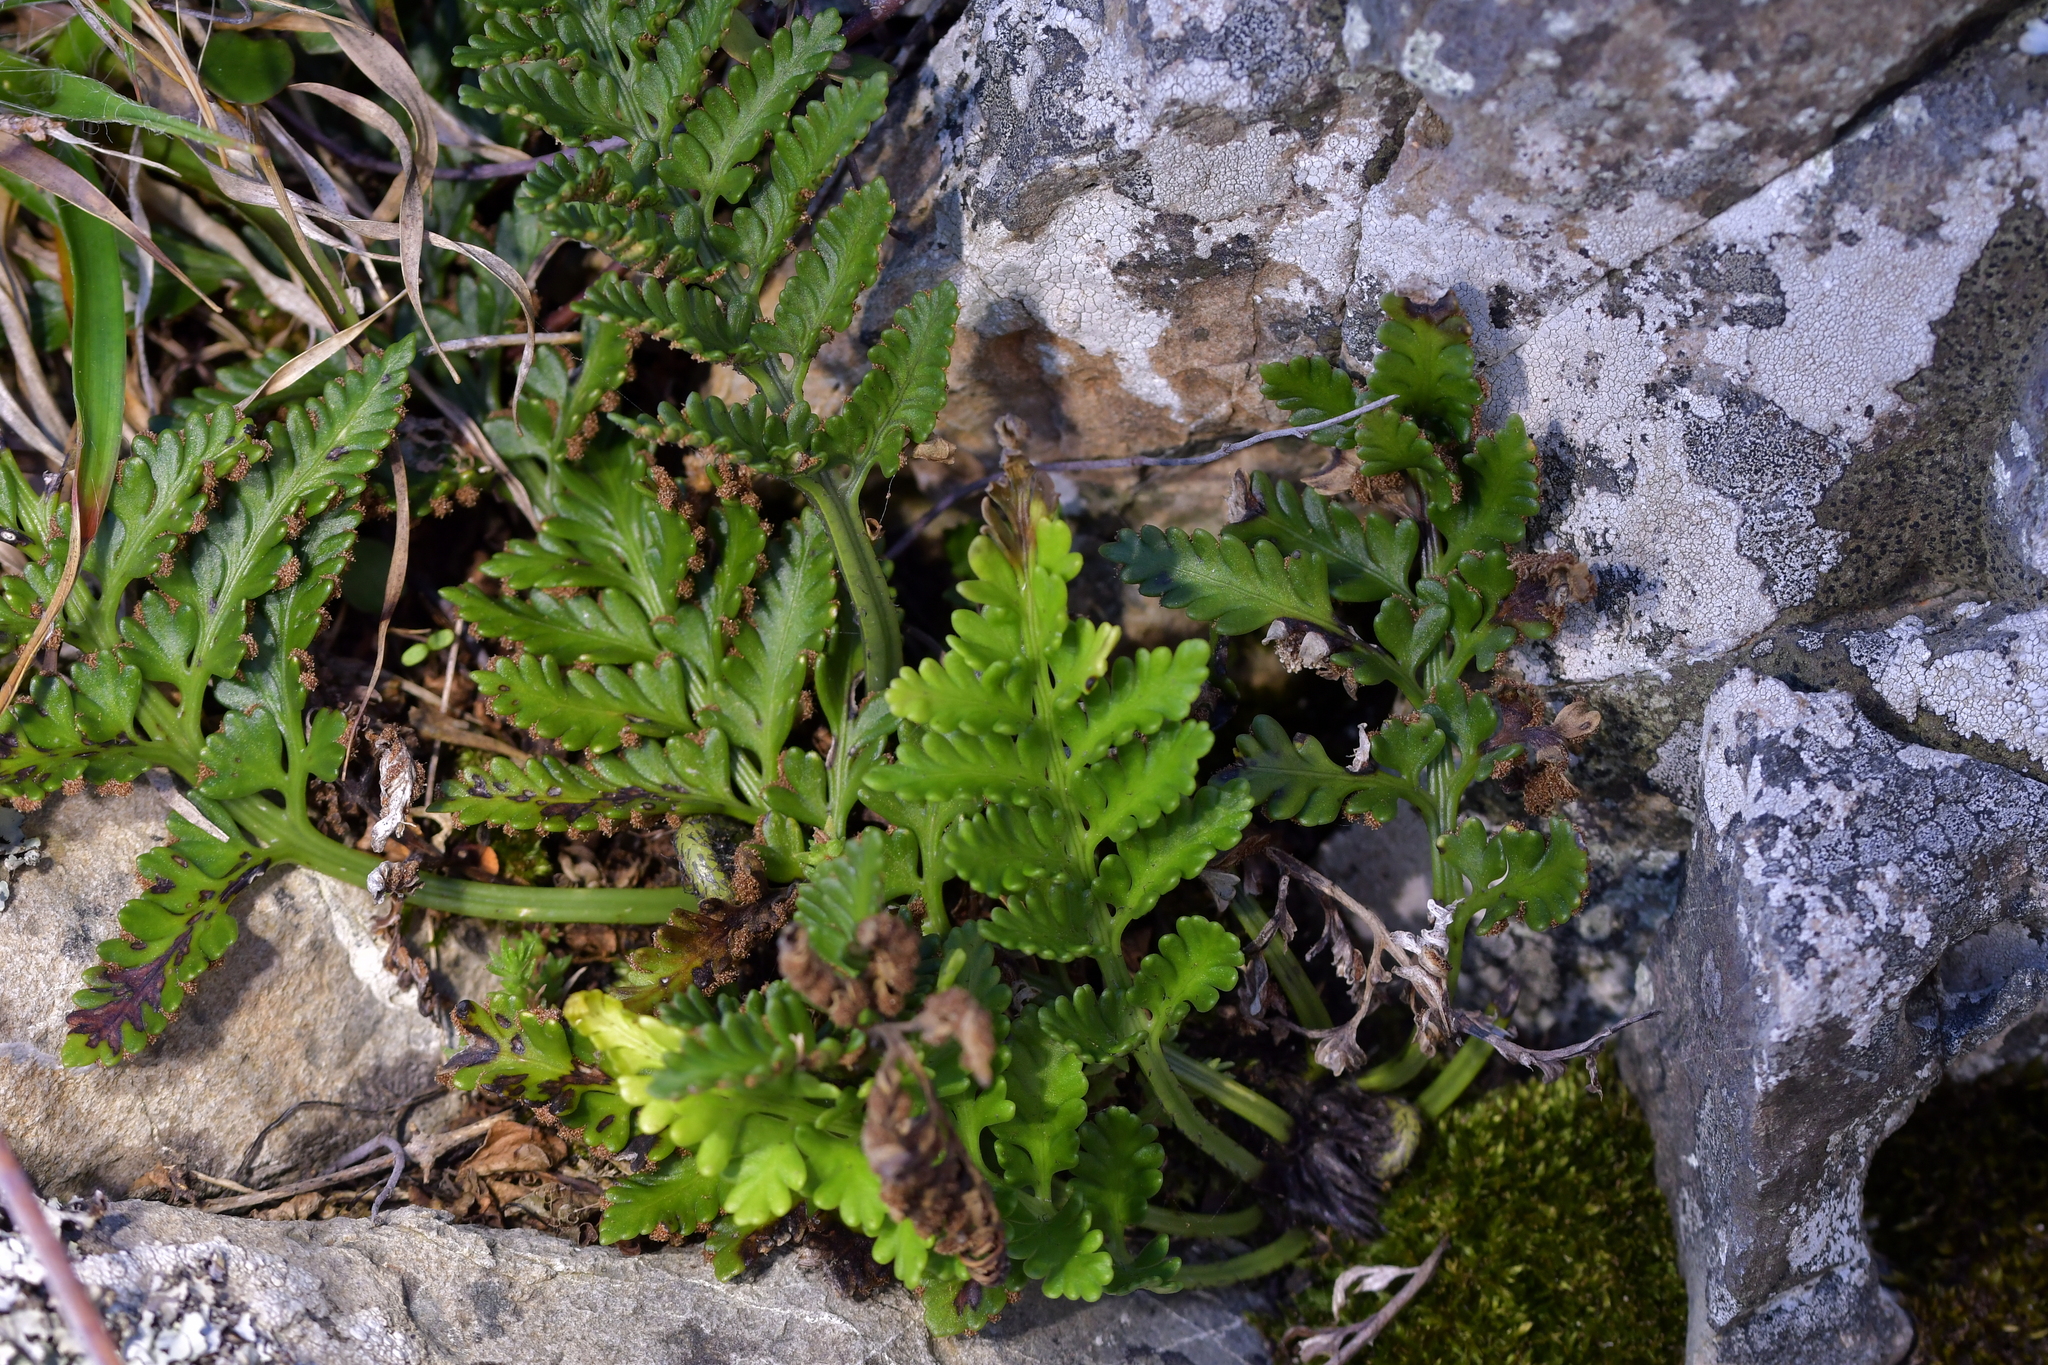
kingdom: Plantae
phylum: Tracheophyta
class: Polypodiopsida
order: Polypodiales
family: Aspleniaceae
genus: Asplenium
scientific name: Asplenium appendiculatum
